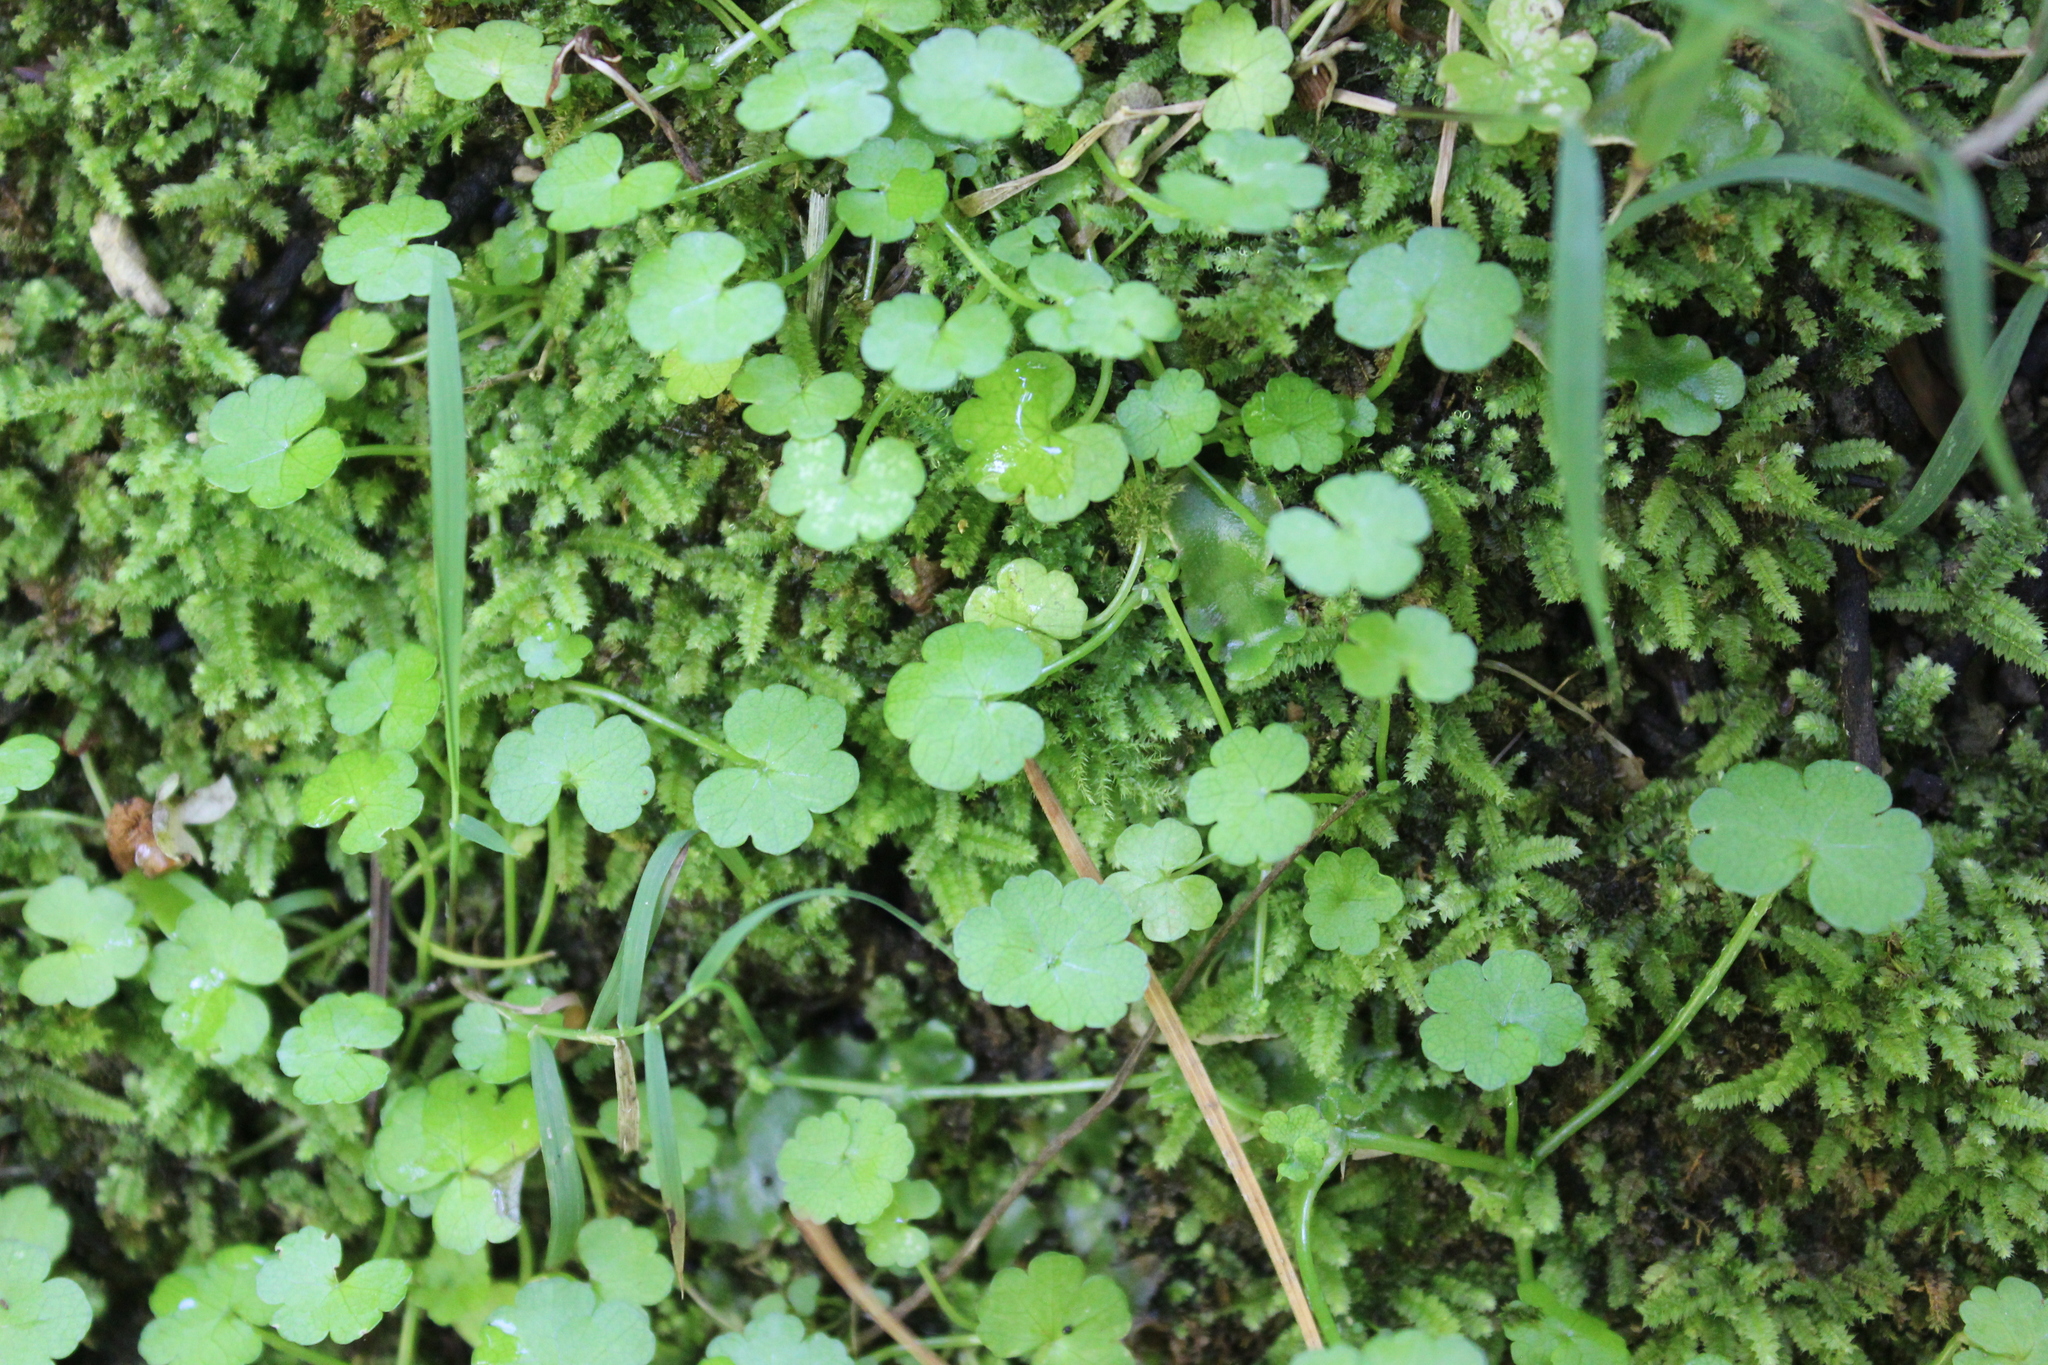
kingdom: Plantae
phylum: Tracheophyta
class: Magnoliopsida
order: Apiales
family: Araliaceae
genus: Hydrocotyle
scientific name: Hydrocotyle heteromeria
